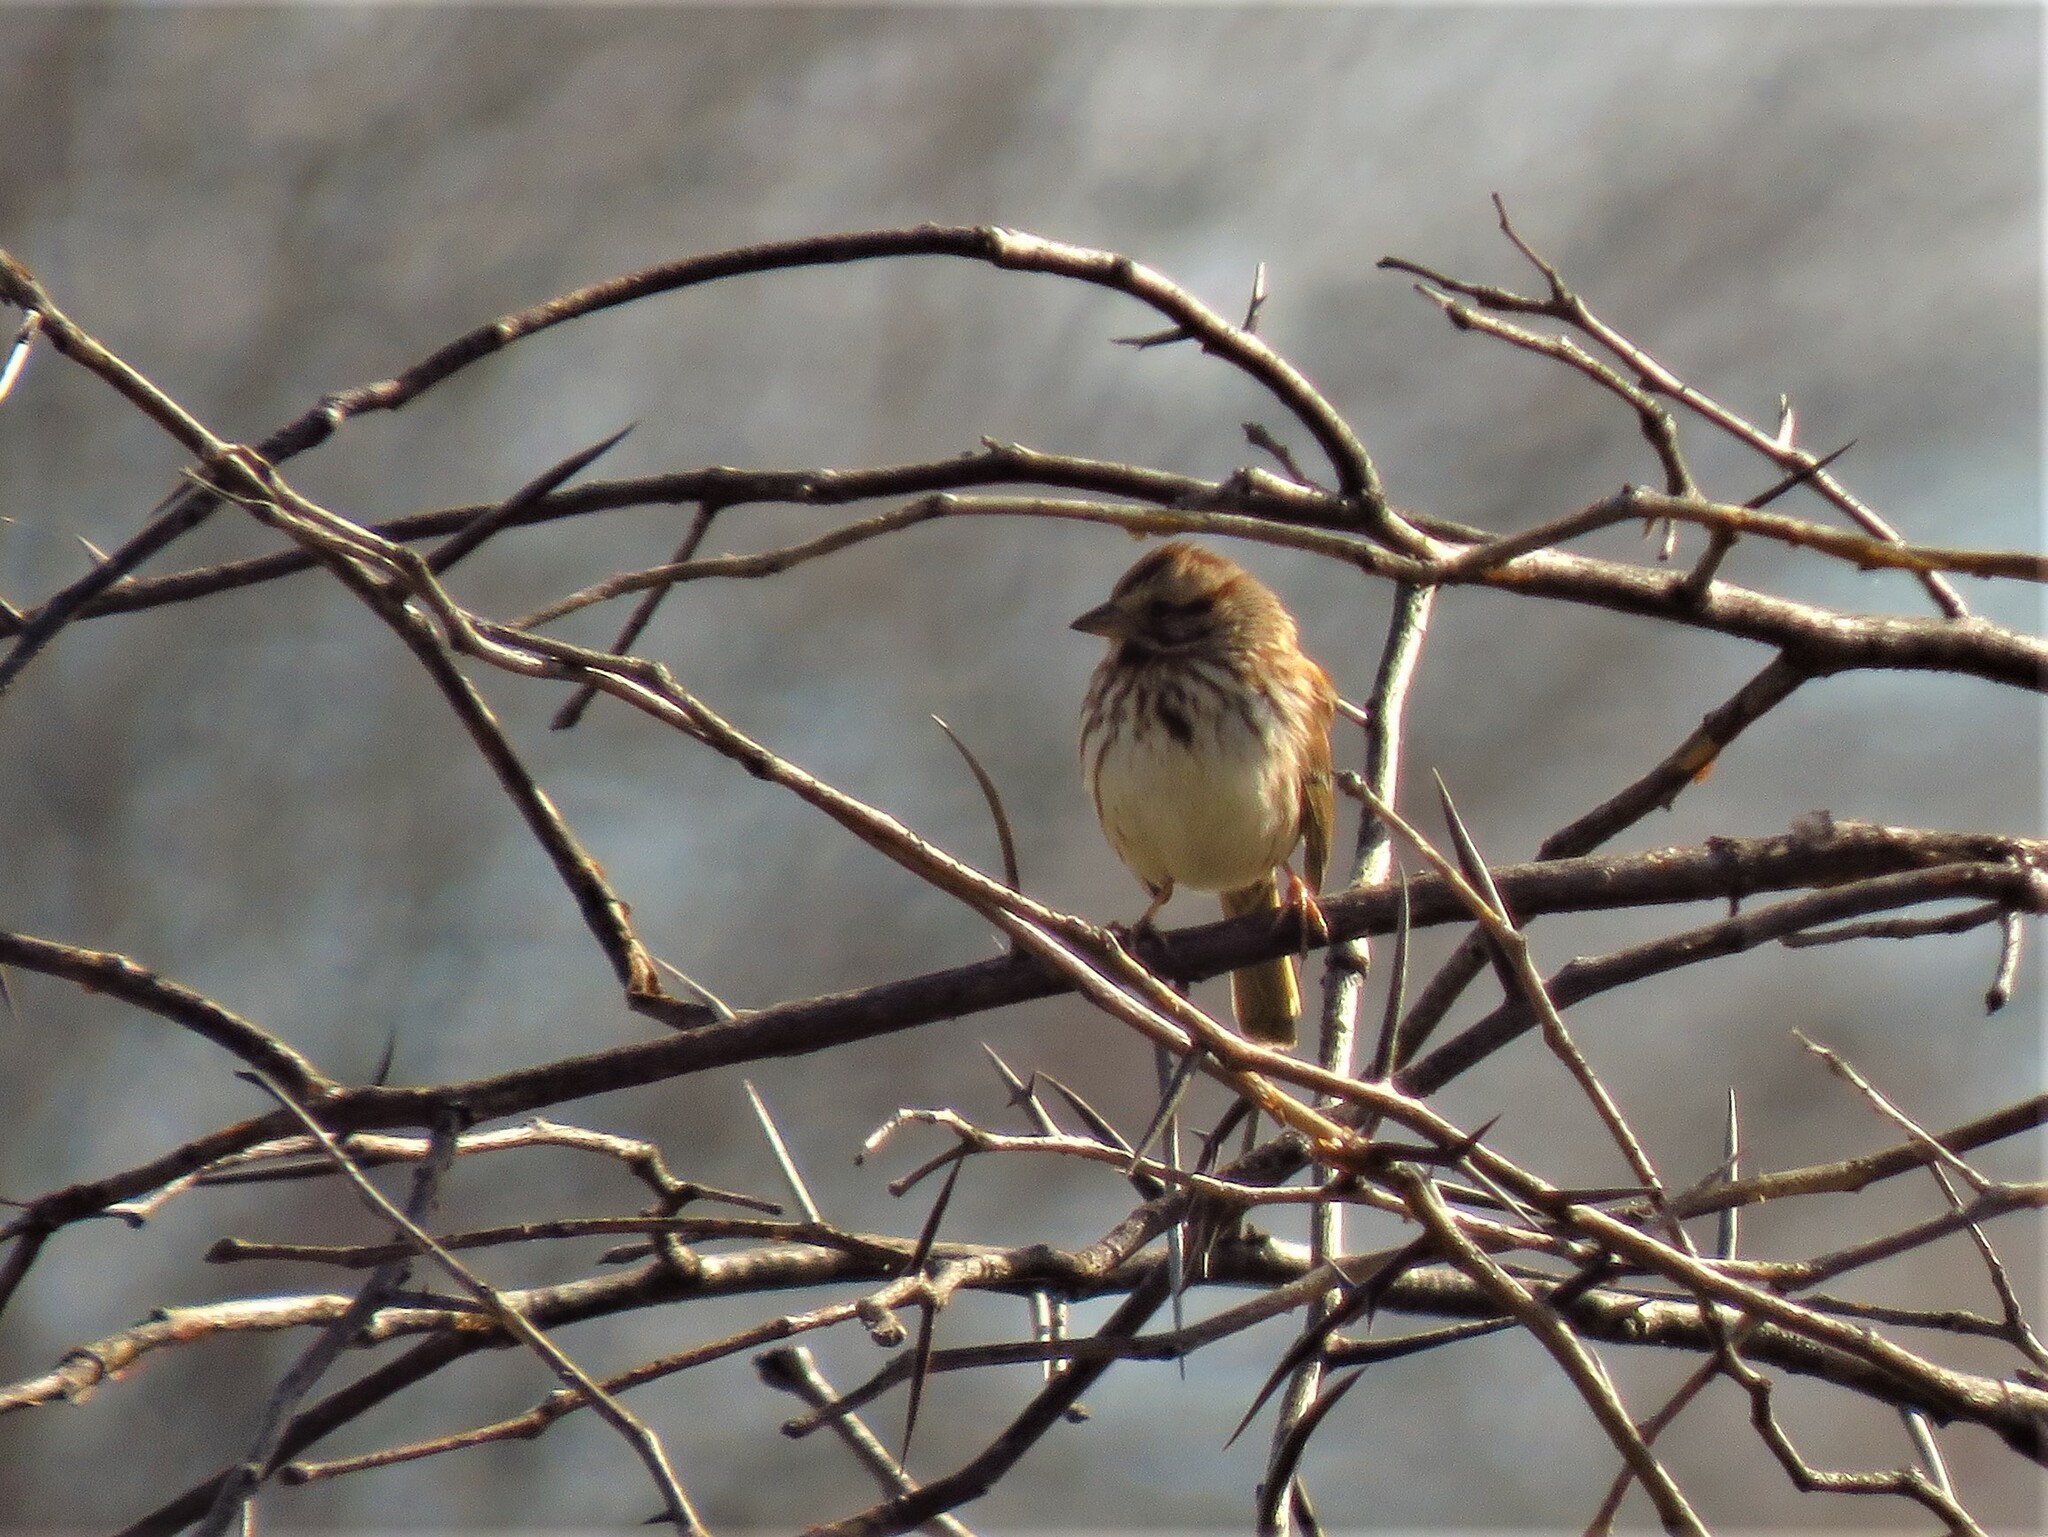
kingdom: Animalia
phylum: Chordata
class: Aves
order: Passeriformes
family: Passerellidae
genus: Melospiza
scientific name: Melospiza melodia
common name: Song sparrow
